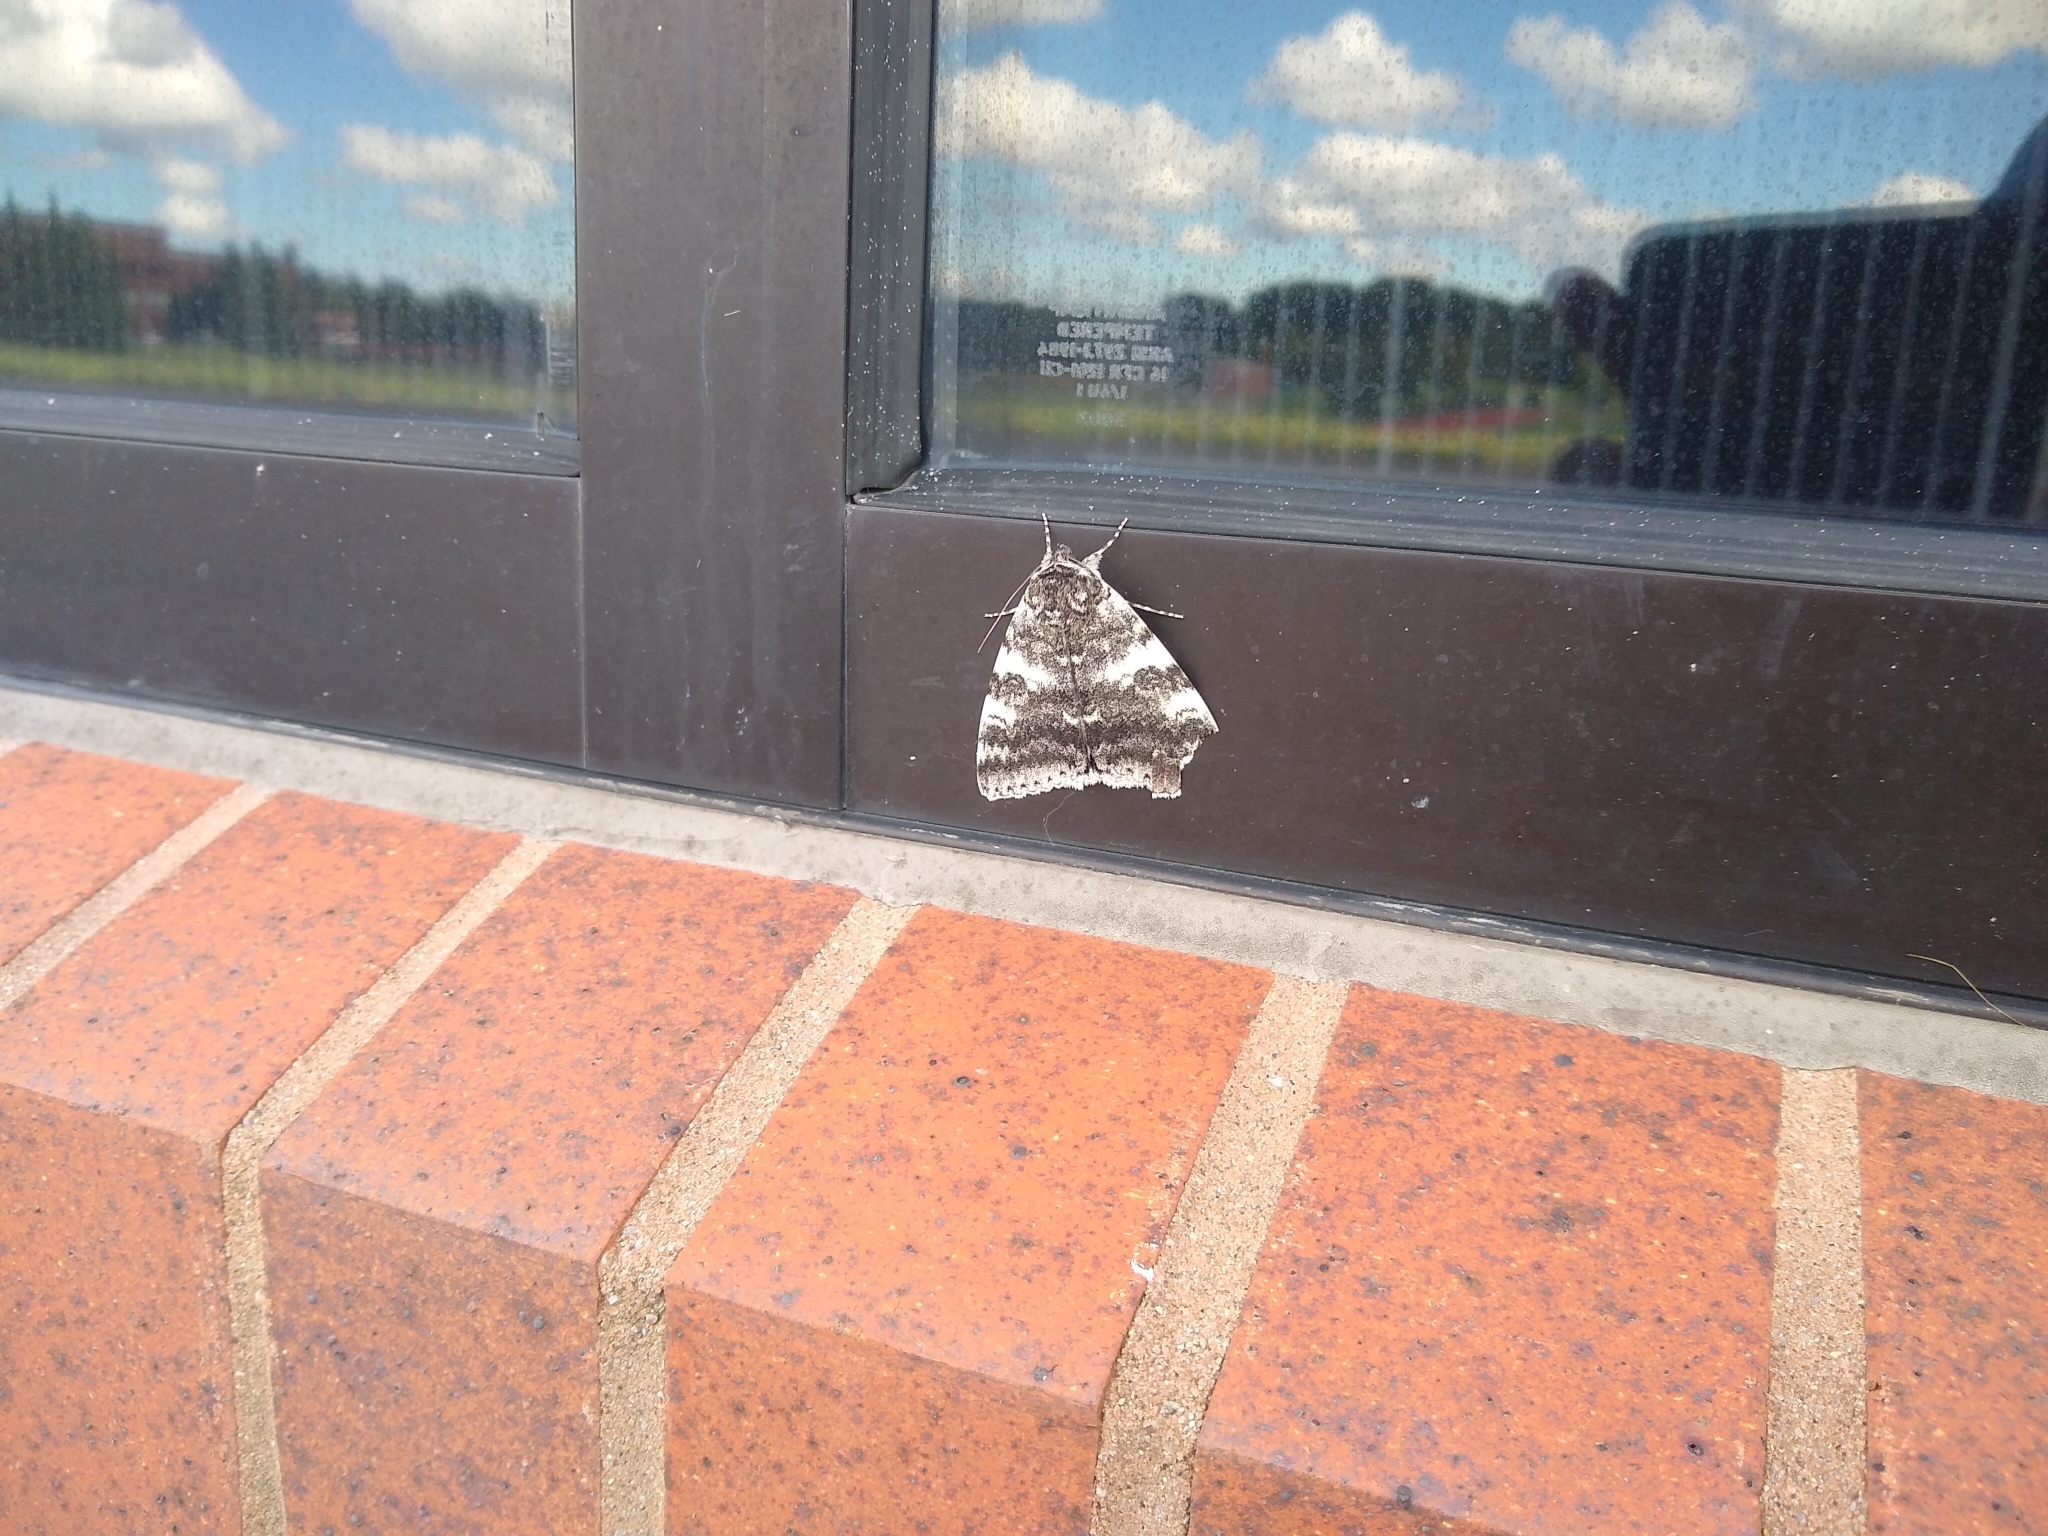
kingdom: Animalia
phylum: Arthropoda
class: Insecta
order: Lepidoptera
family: Erebidae
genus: Catocala
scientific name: Catocala relicta
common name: White underwing
